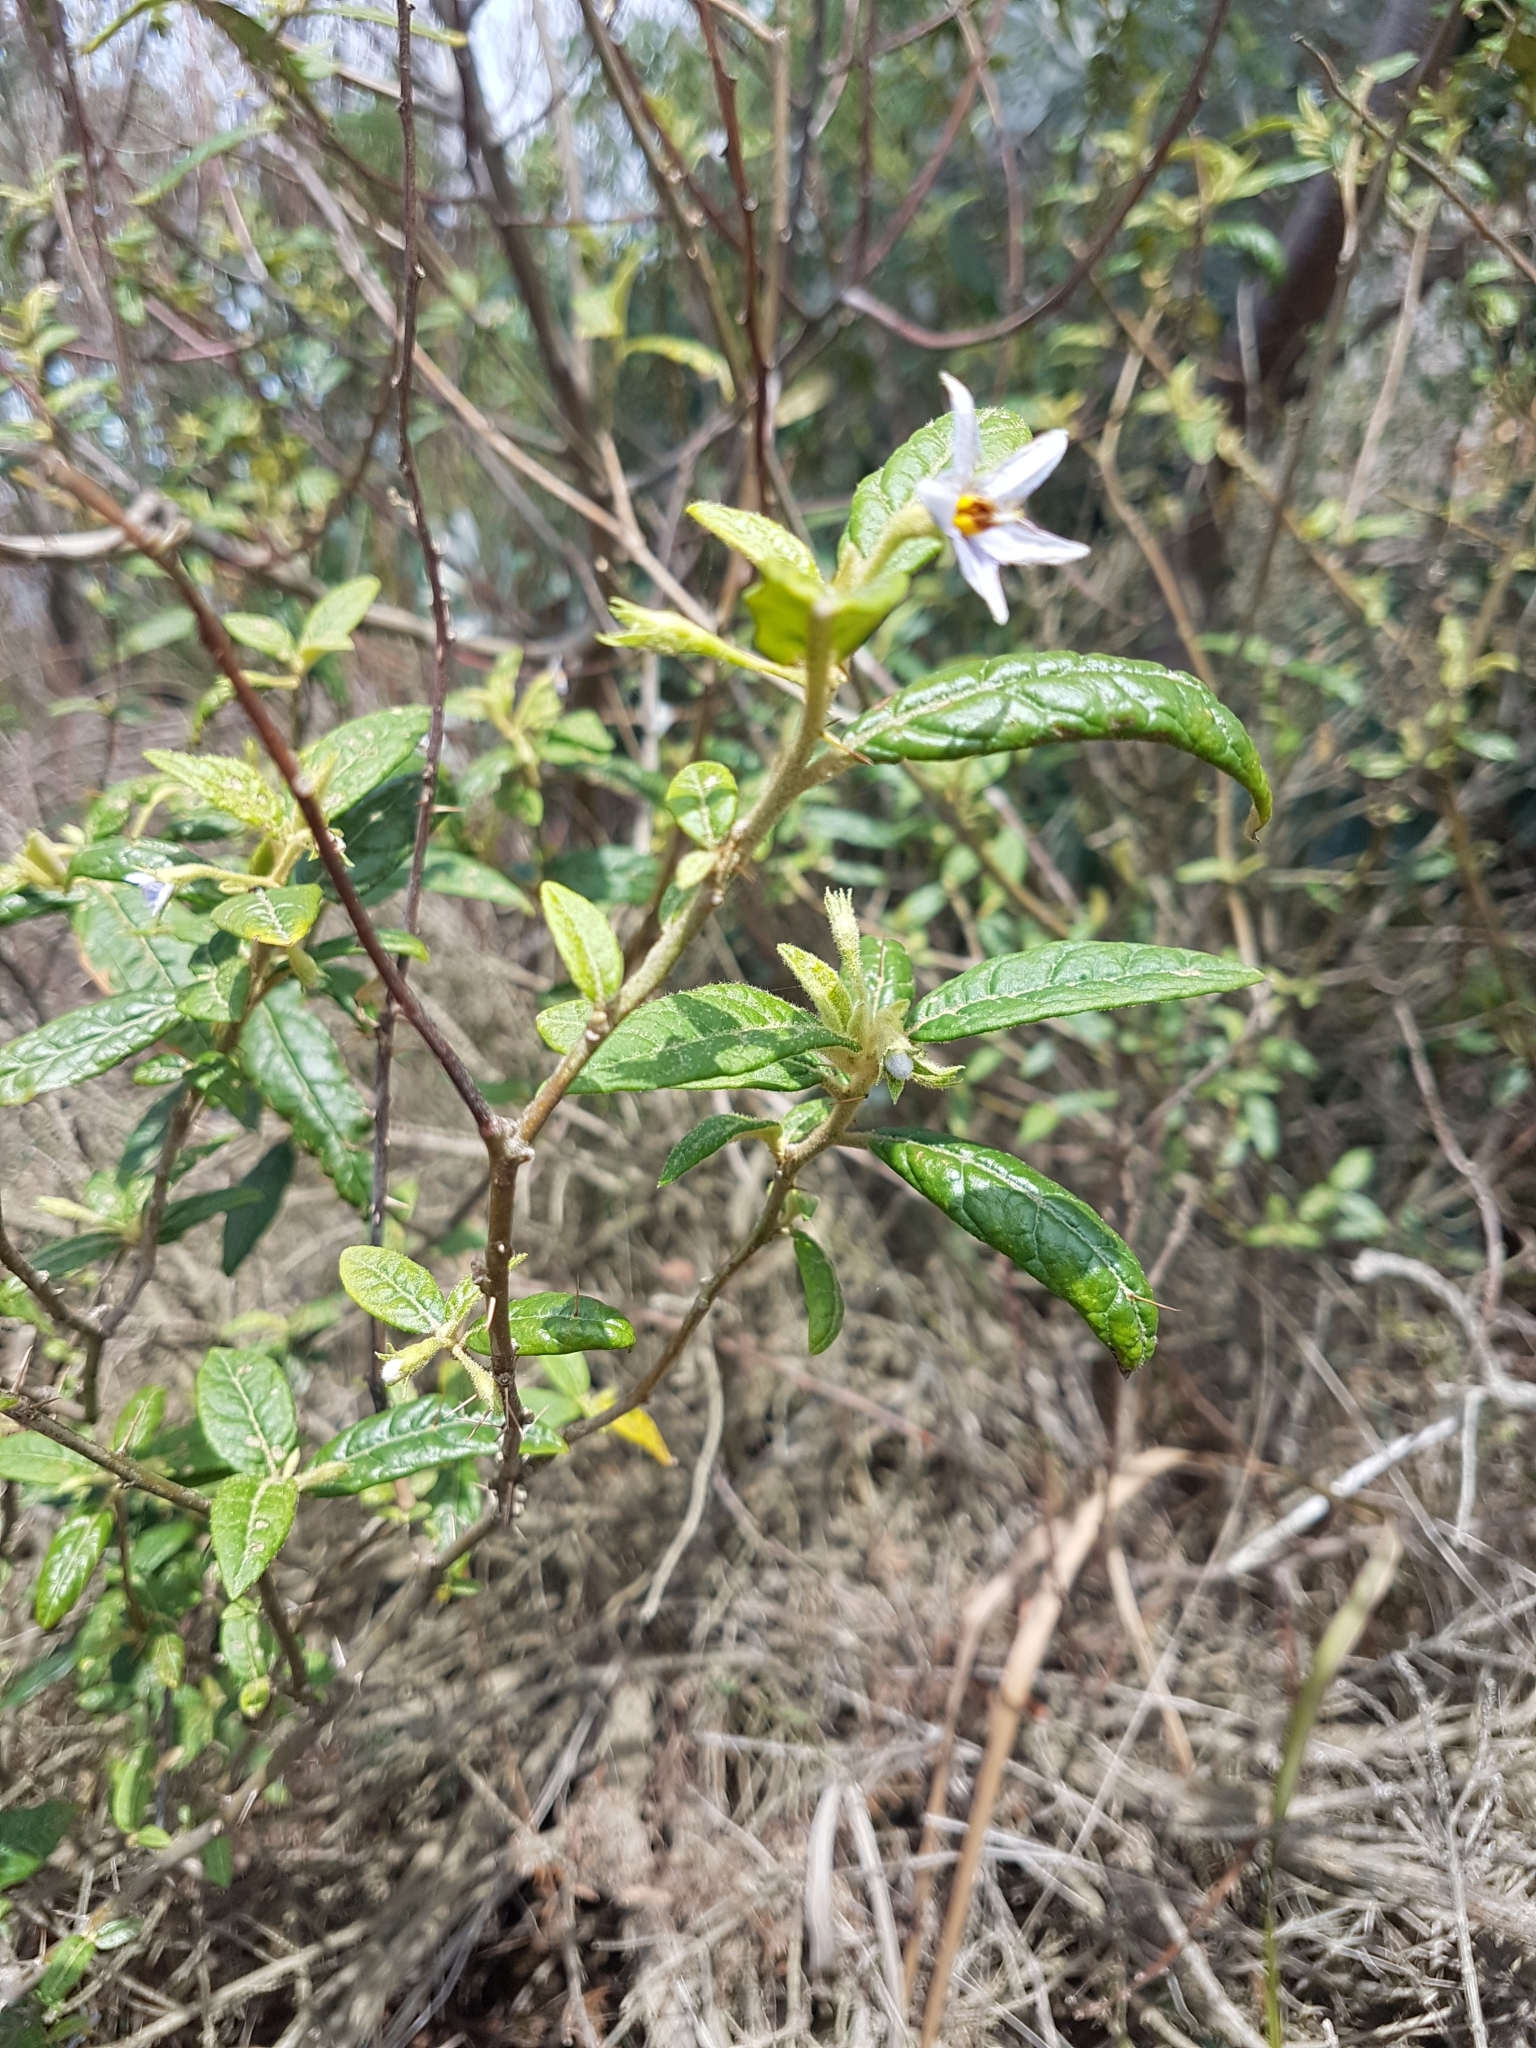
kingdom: Plantae
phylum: Tracheophyta
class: Magnoliopsida
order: Solanales
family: Solanaceae
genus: Solanum
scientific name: Solanum stelligerum
